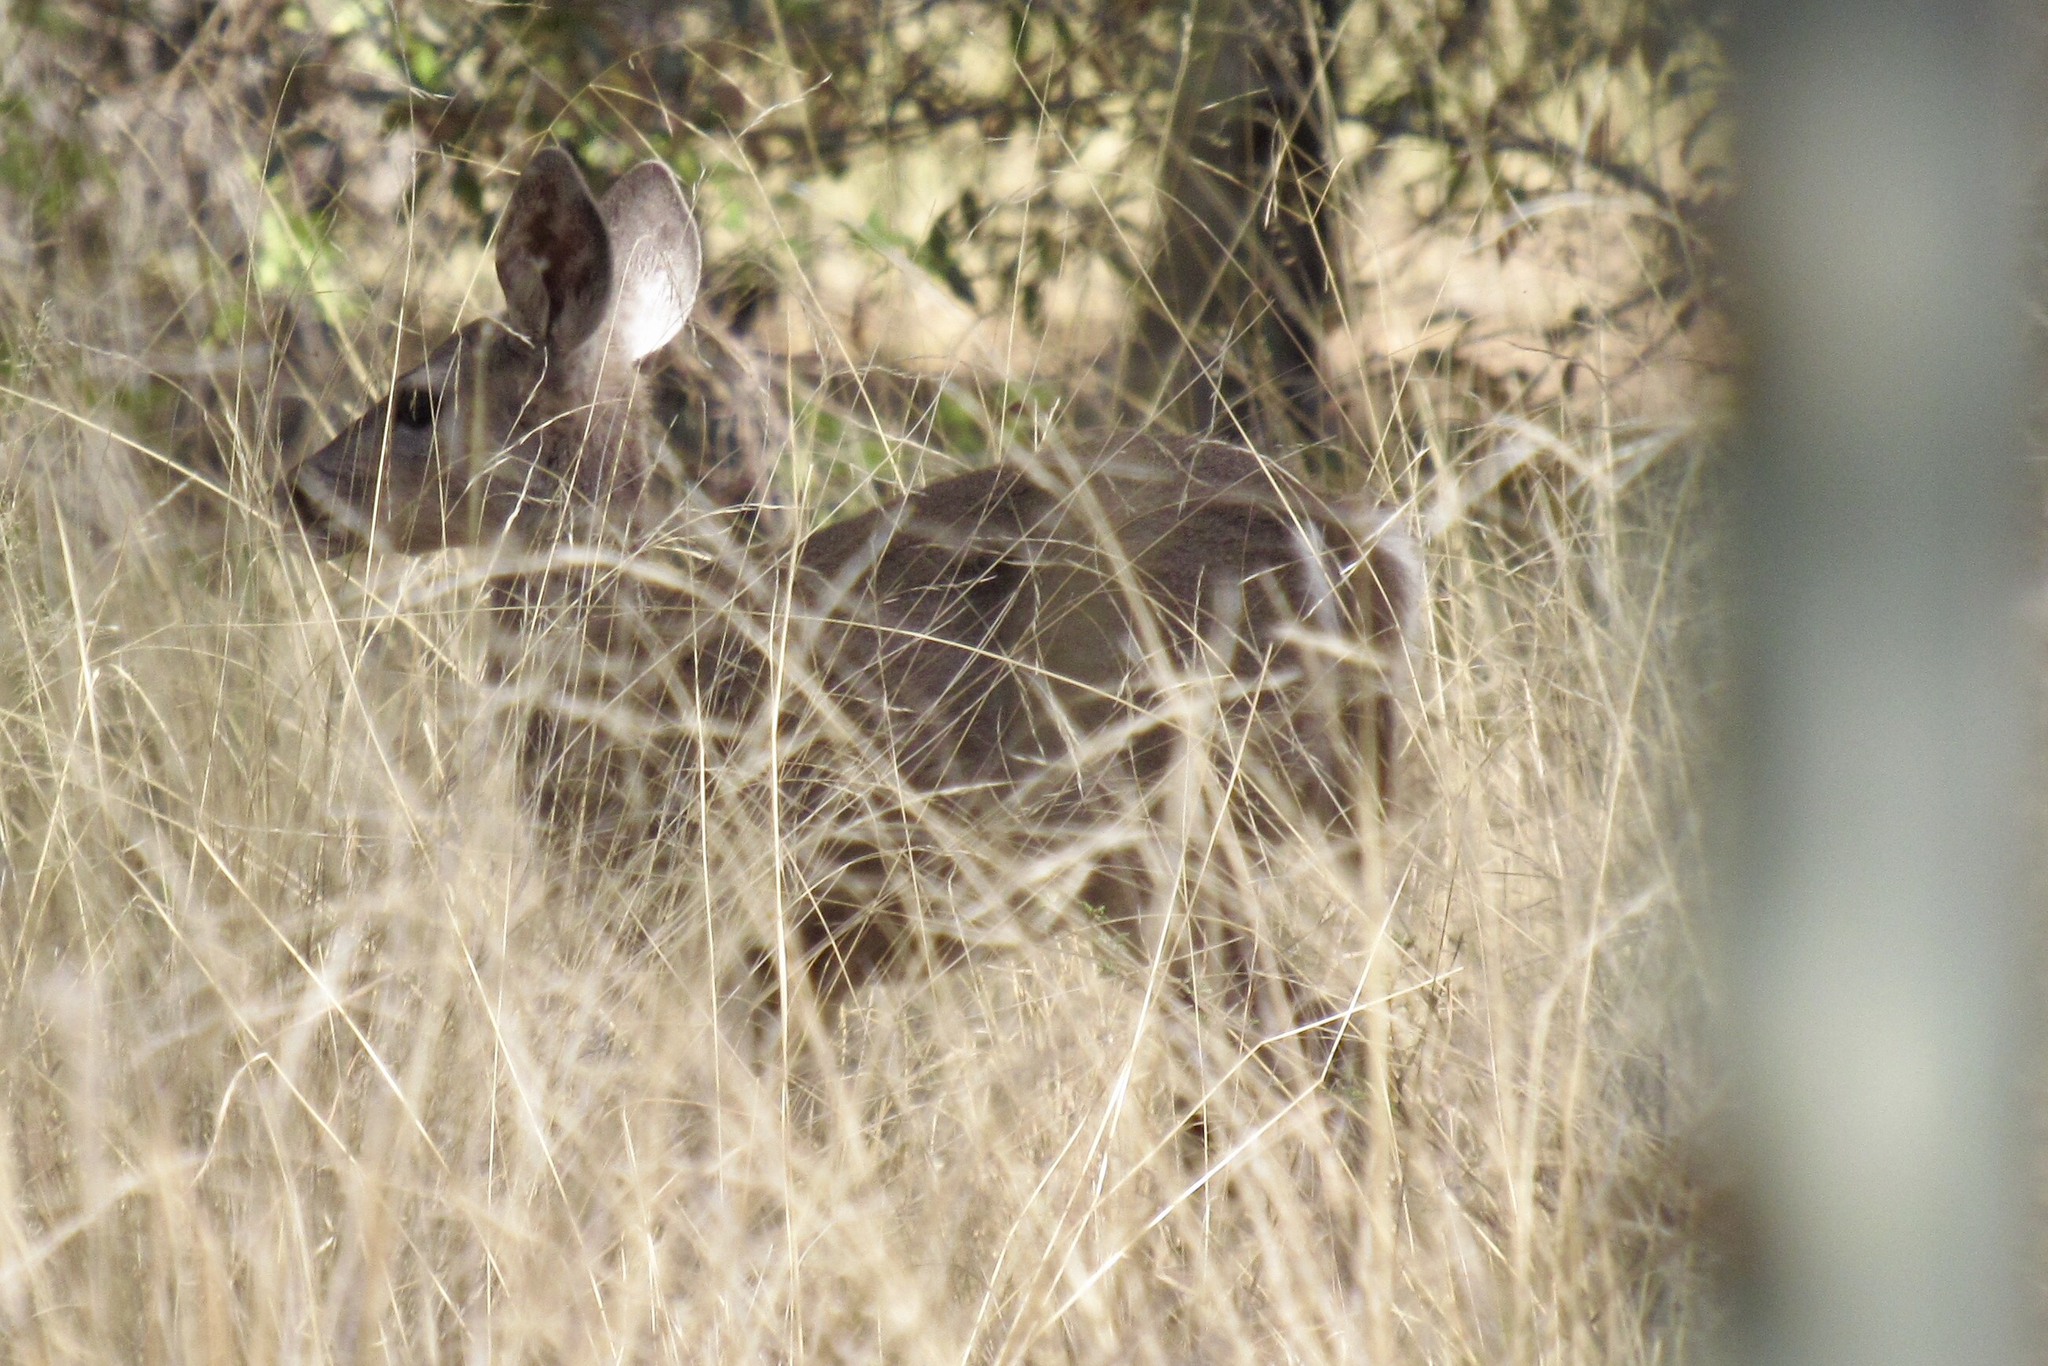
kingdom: Animalia
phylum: Chordata
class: Mammalia
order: Artiodactyla
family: Cervidae
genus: Odocoileus
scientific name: Odocoileus virginianus
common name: White-tailed deer
